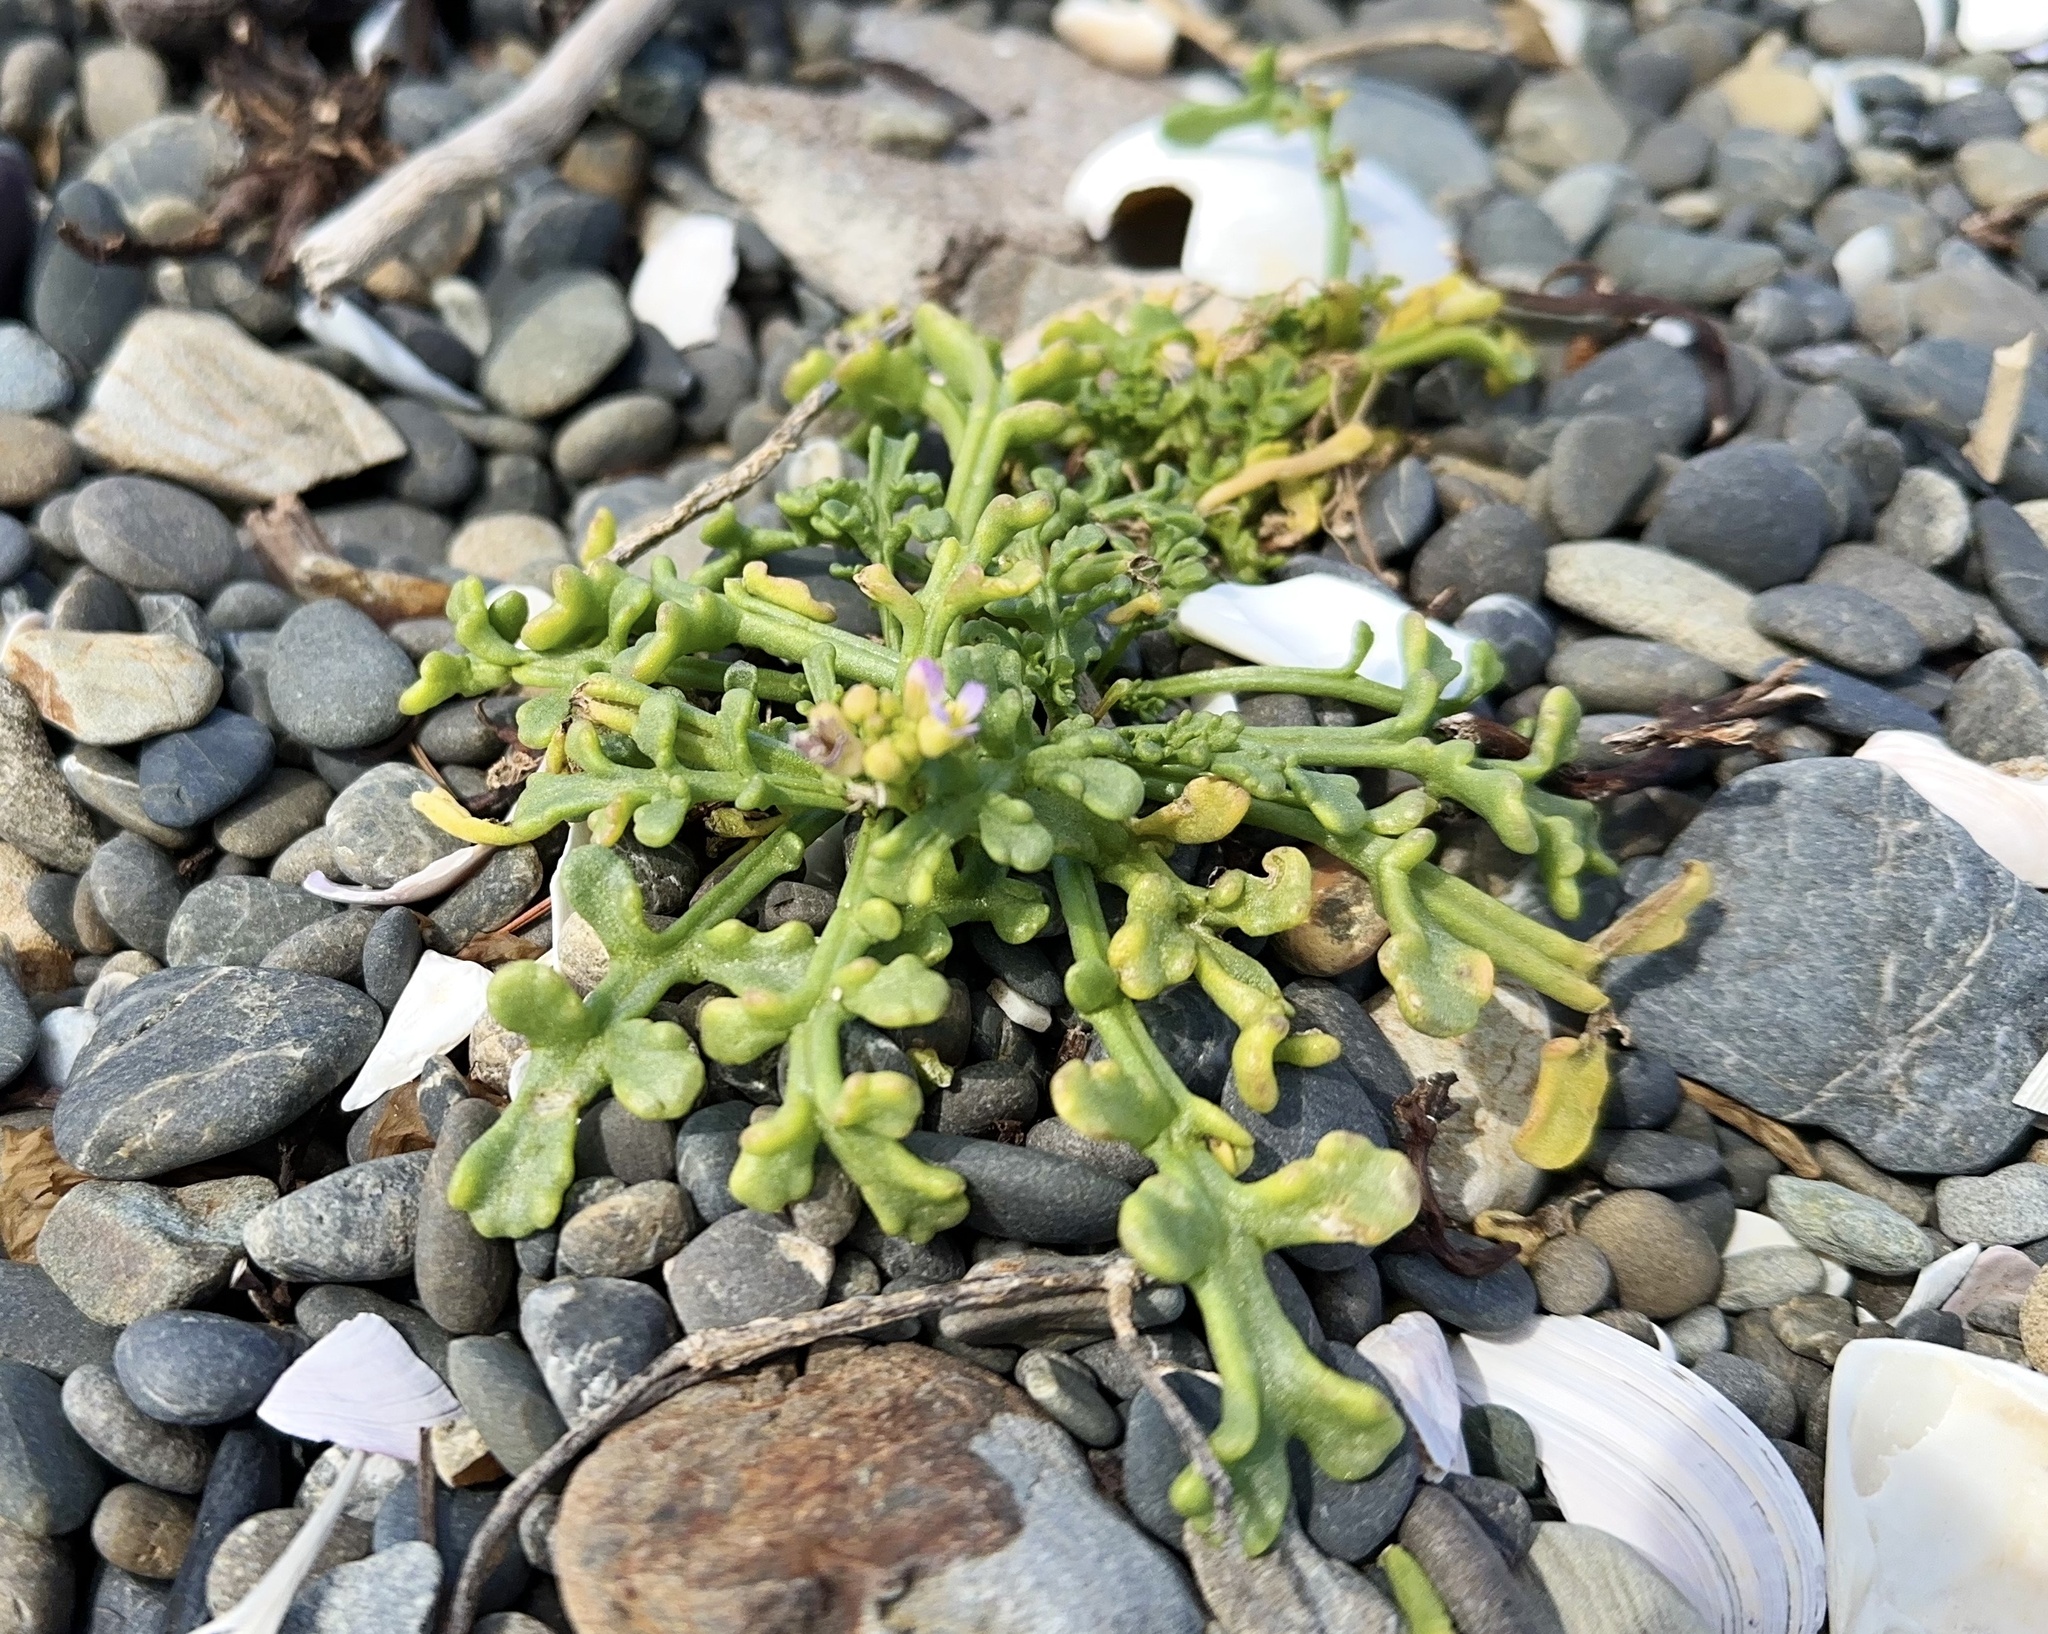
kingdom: Plantae
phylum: Tracheophyta
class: Magnoliopsida
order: Brassicales
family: Brassicaceae
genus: Cakile
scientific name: Cakile maritima
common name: Sea rocket
